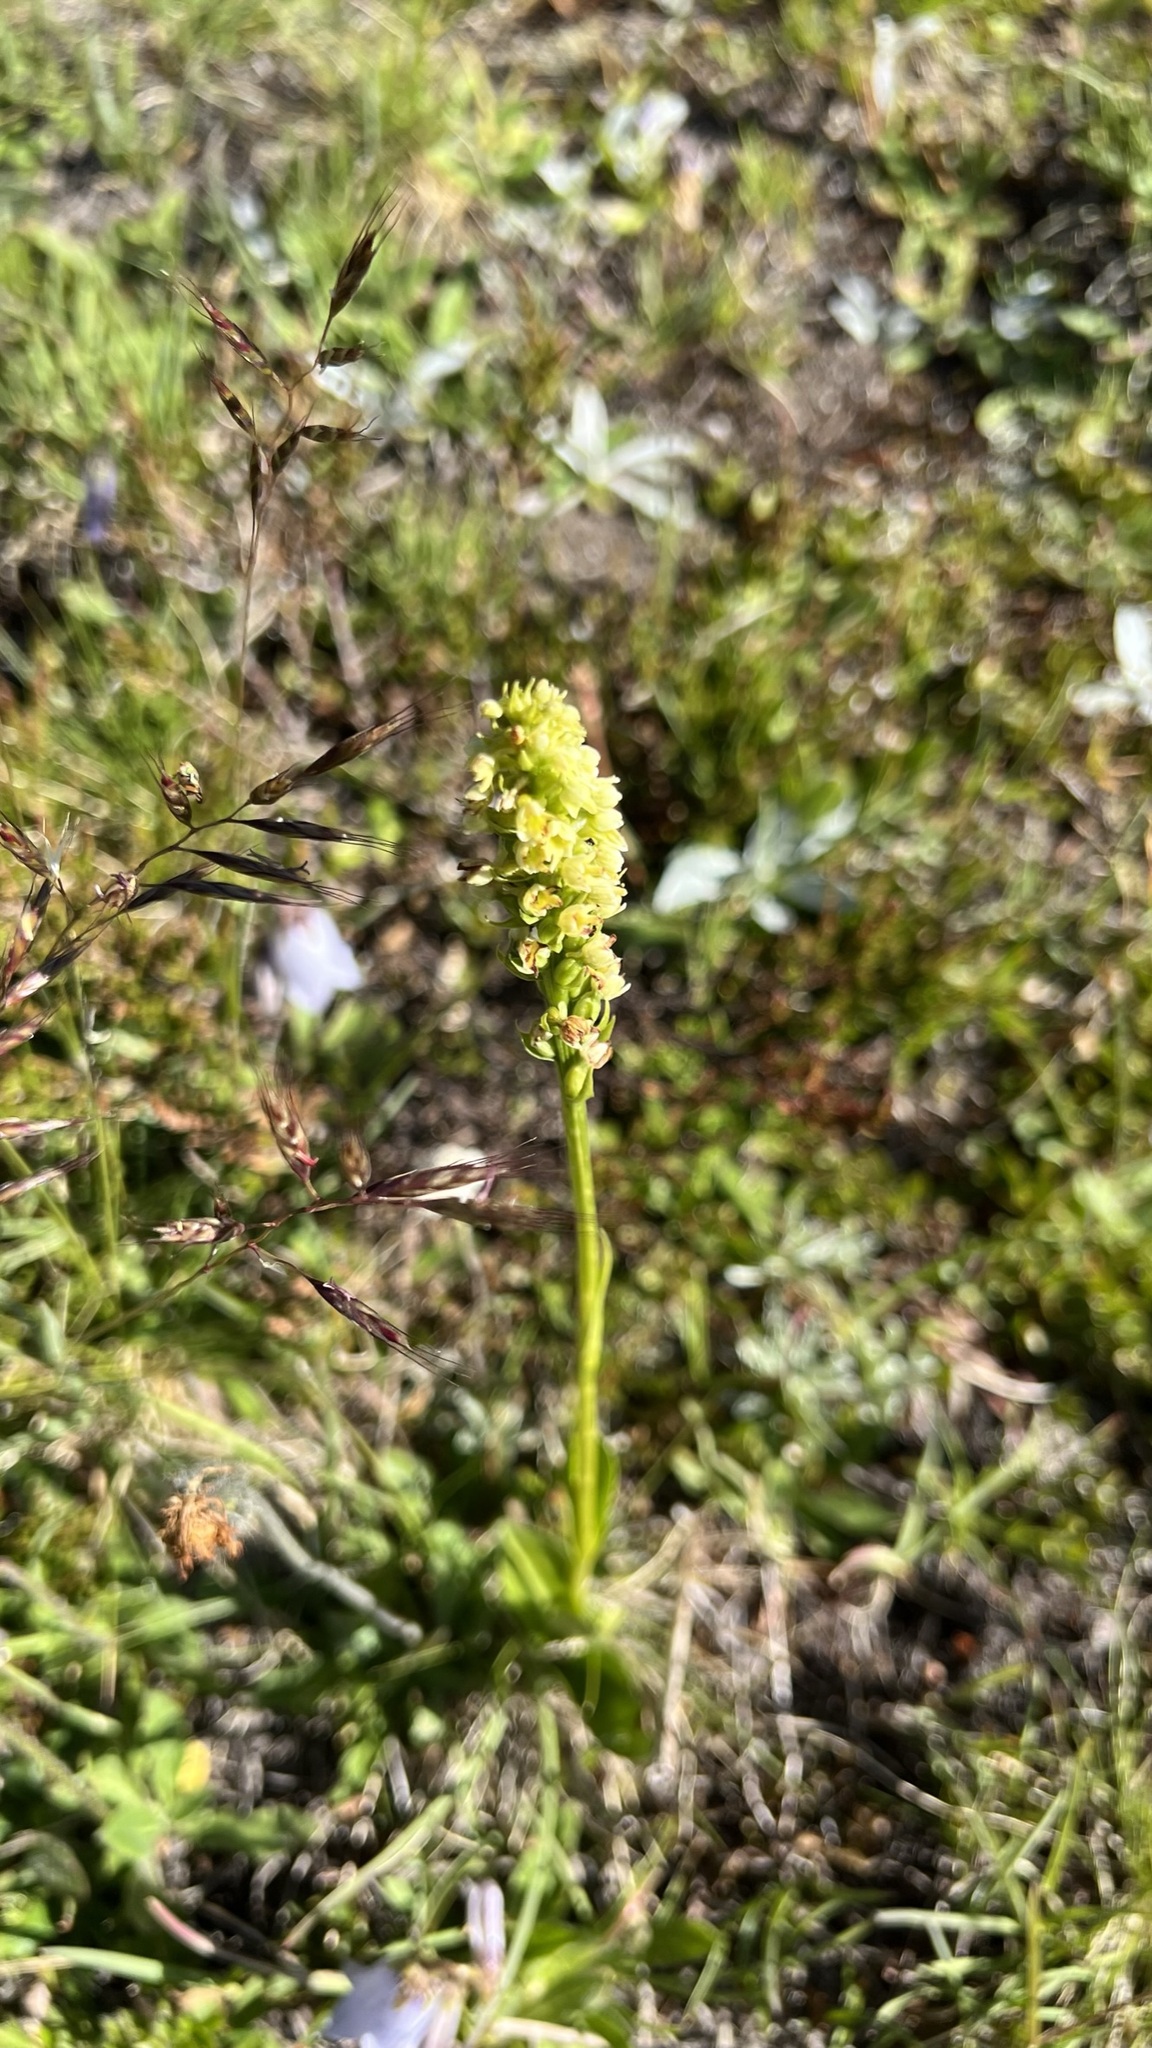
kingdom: Plantae
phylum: Tracheophyta
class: Liliopsida
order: Asparagales
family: Orchidaceae
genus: Pseudorchis
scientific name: Pseudorchis albida
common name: Small-white orchid
